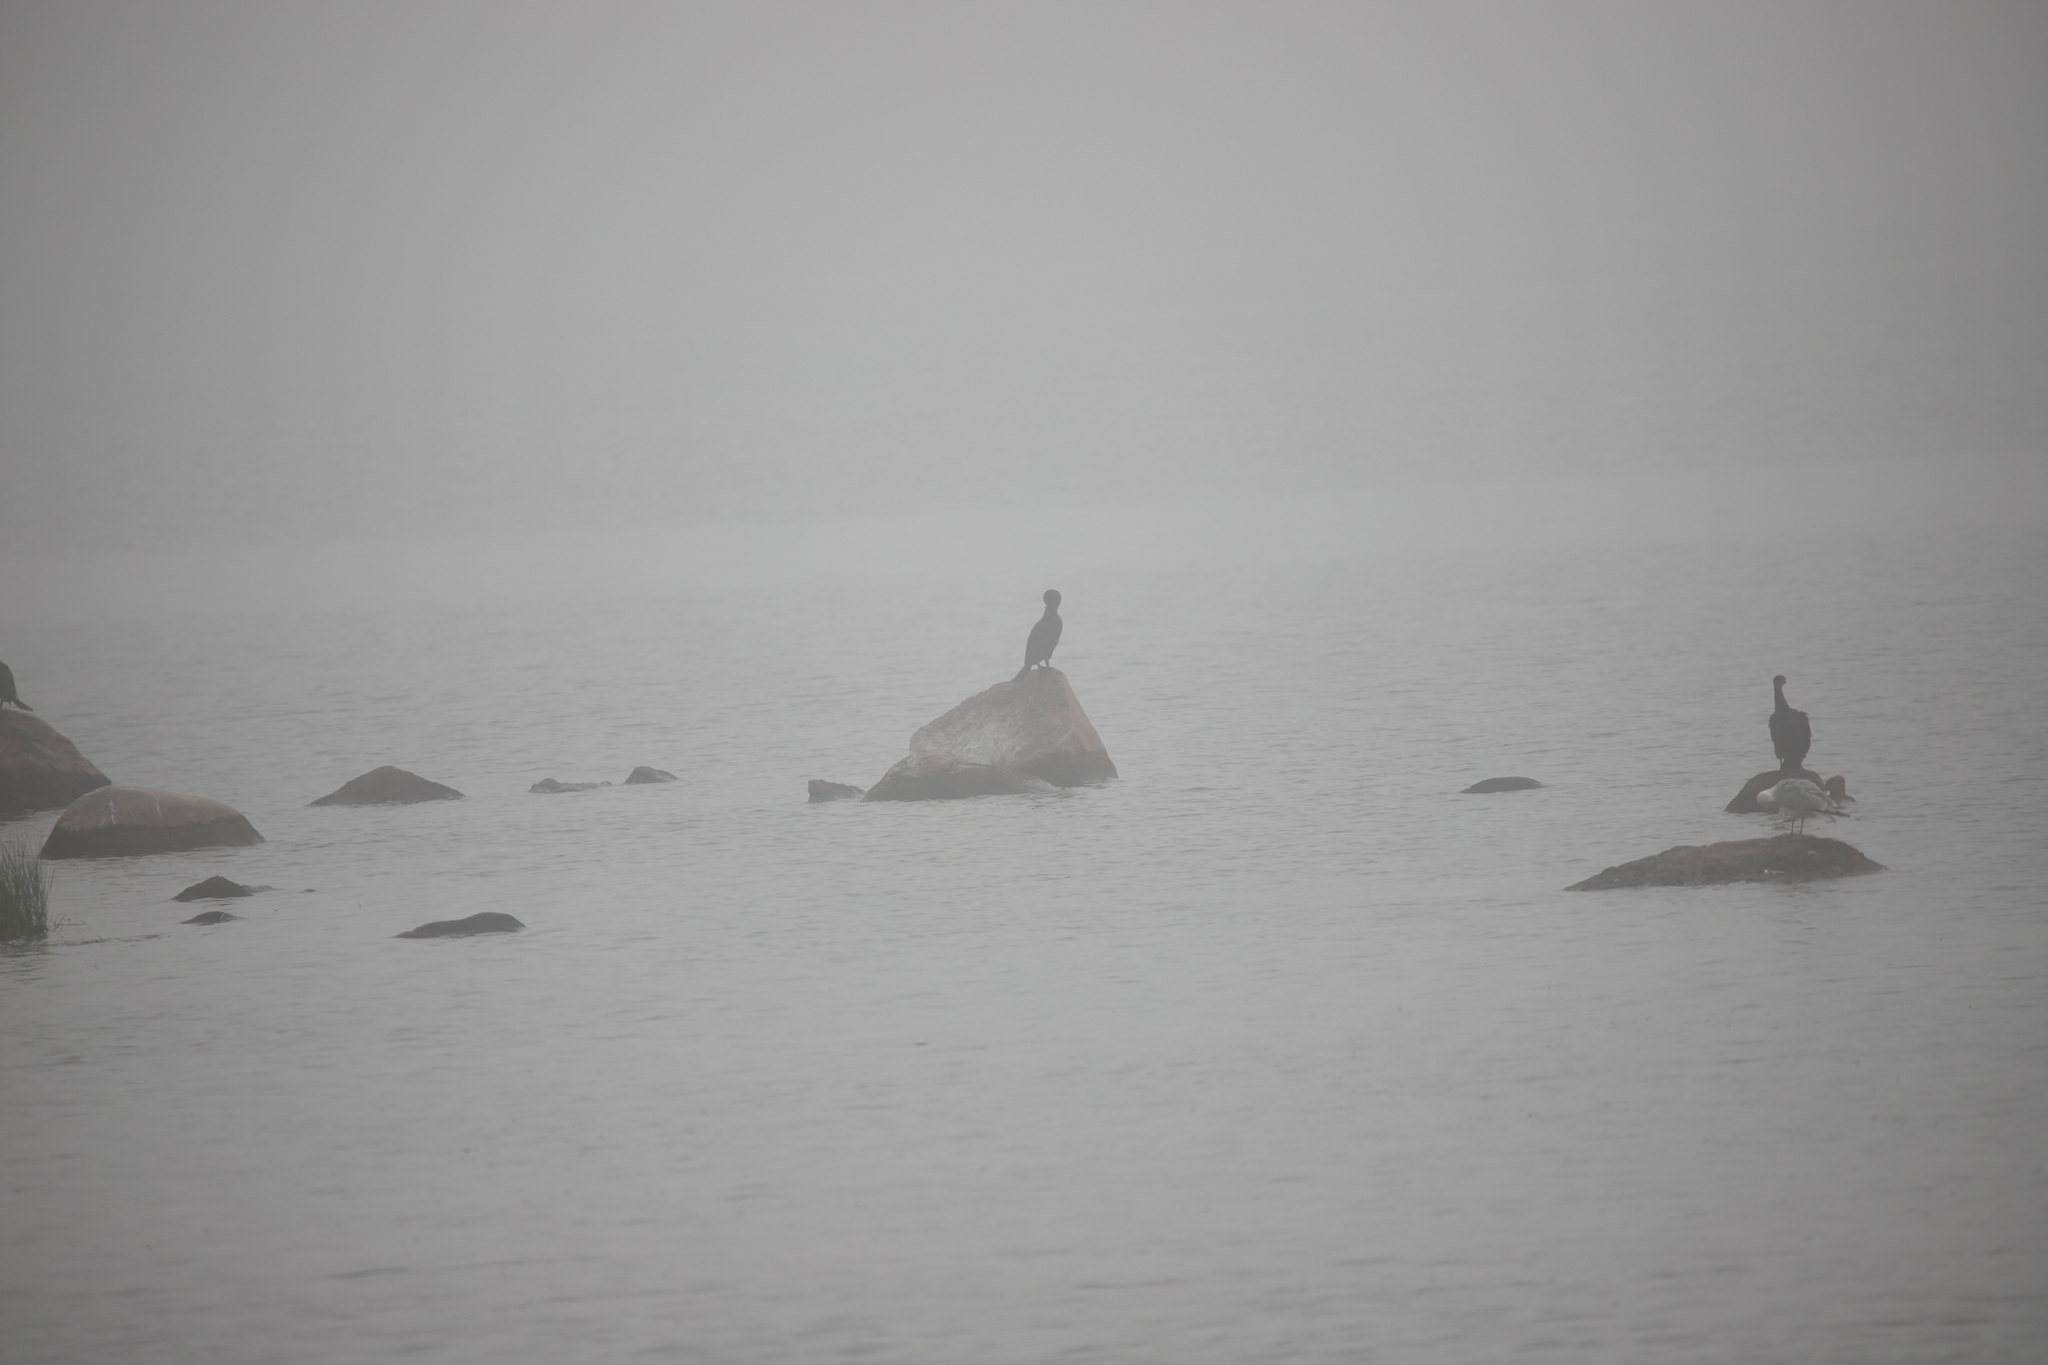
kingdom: Animalia
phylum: Chordata
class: Aves
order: Suliformes
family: Phalacrocoracidae
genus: Phalacrocorax
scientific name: Phalacrocorax auritus
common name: Double-crested cormorant
